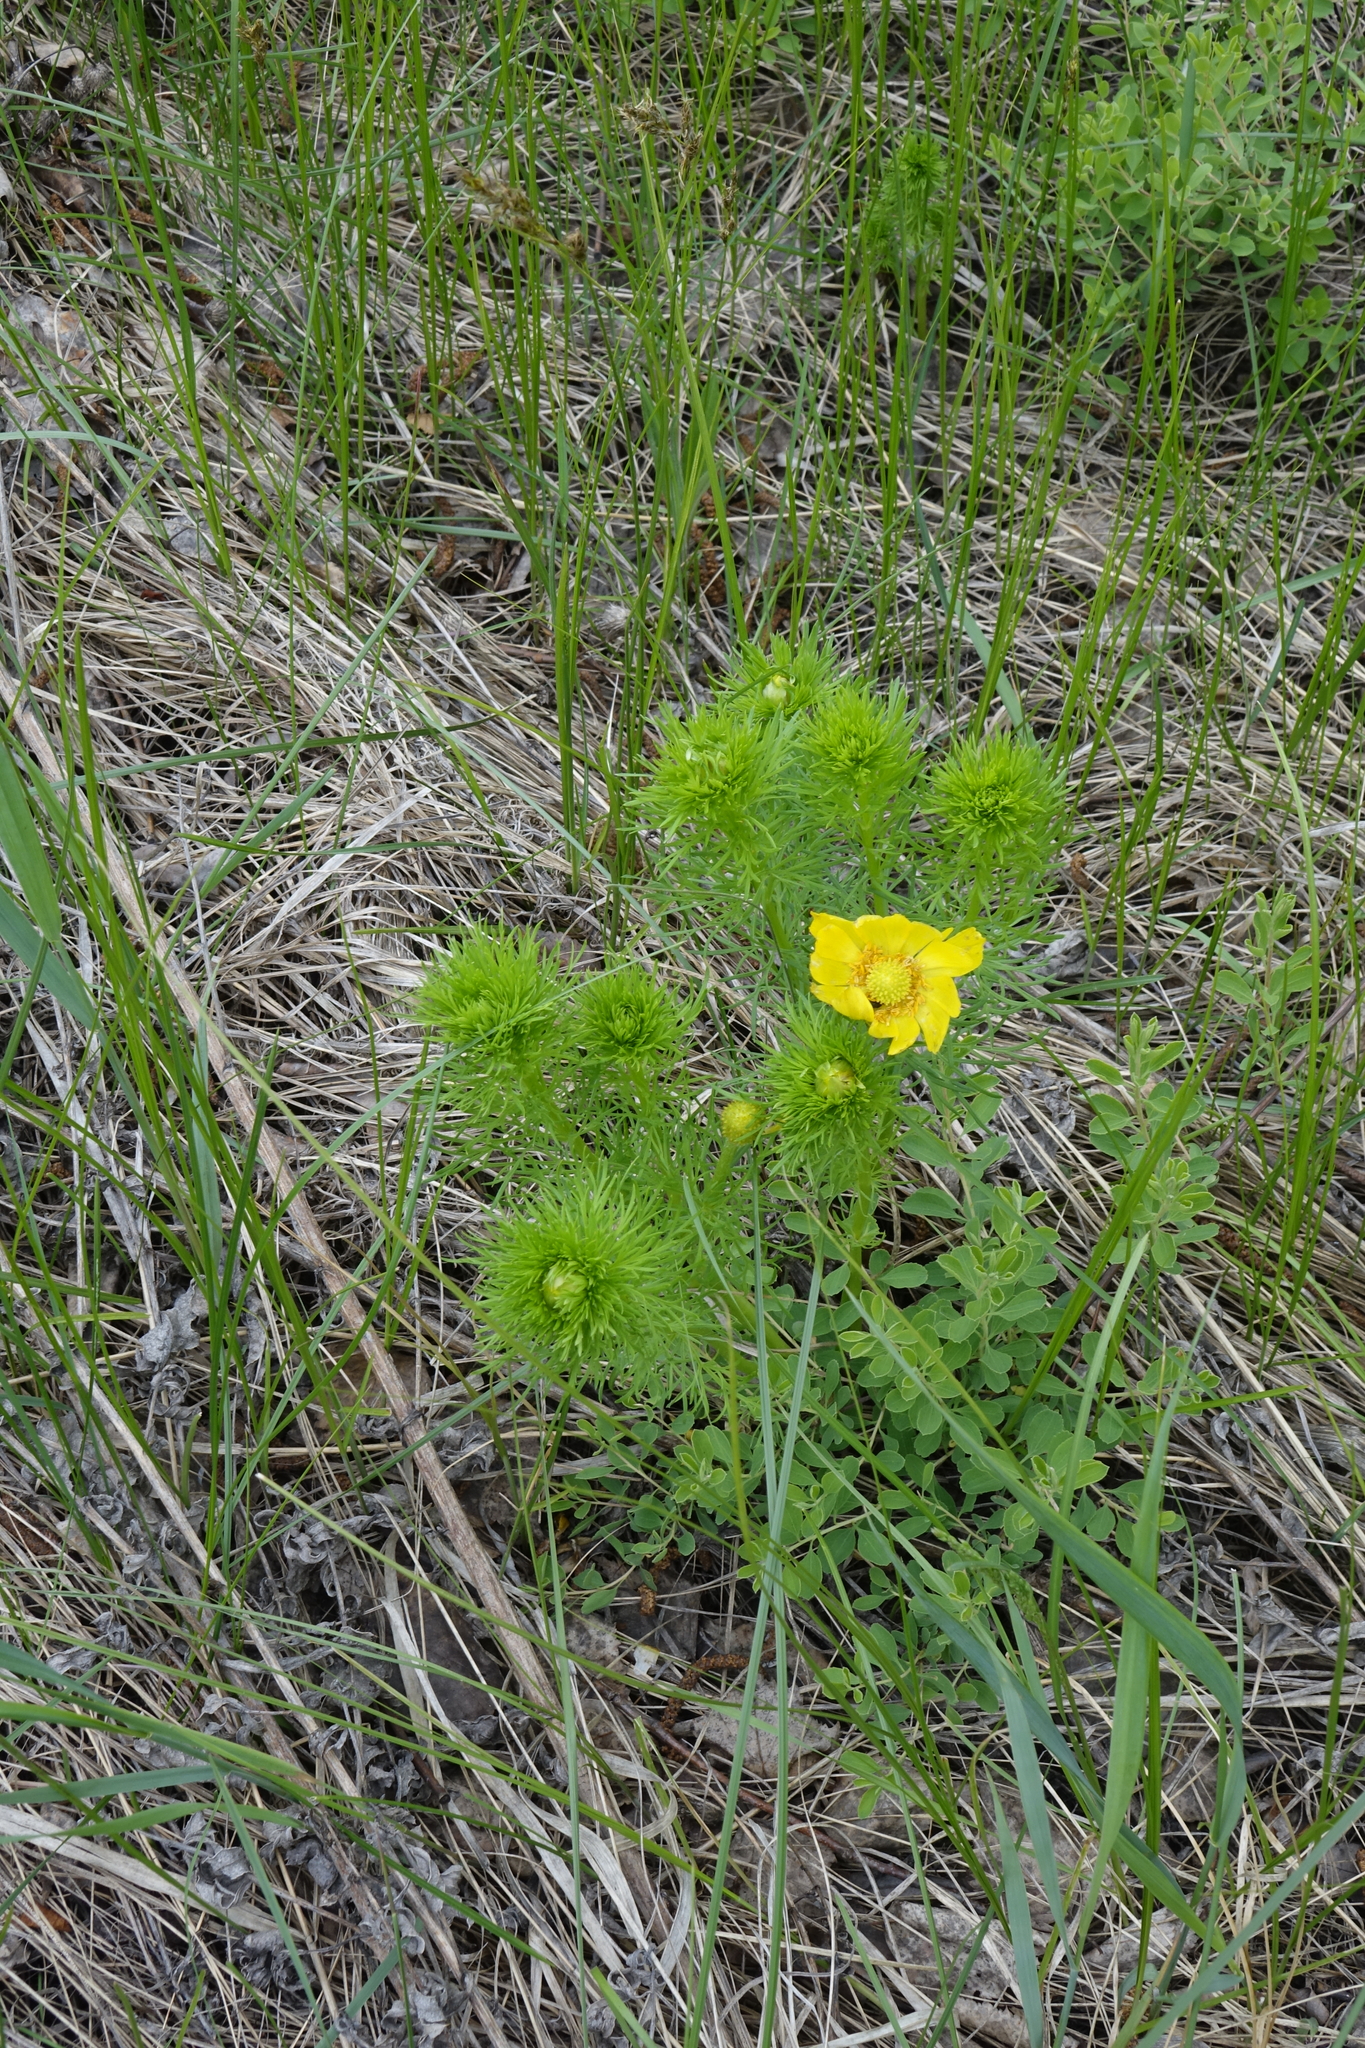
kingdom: Plantae
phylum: Tracheophyta
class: Magnoliopsida
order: Ranunculales
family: Ranunculaceae
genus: Adonis
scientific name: Adonis vernalis
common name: Yellow pheasants-eye
